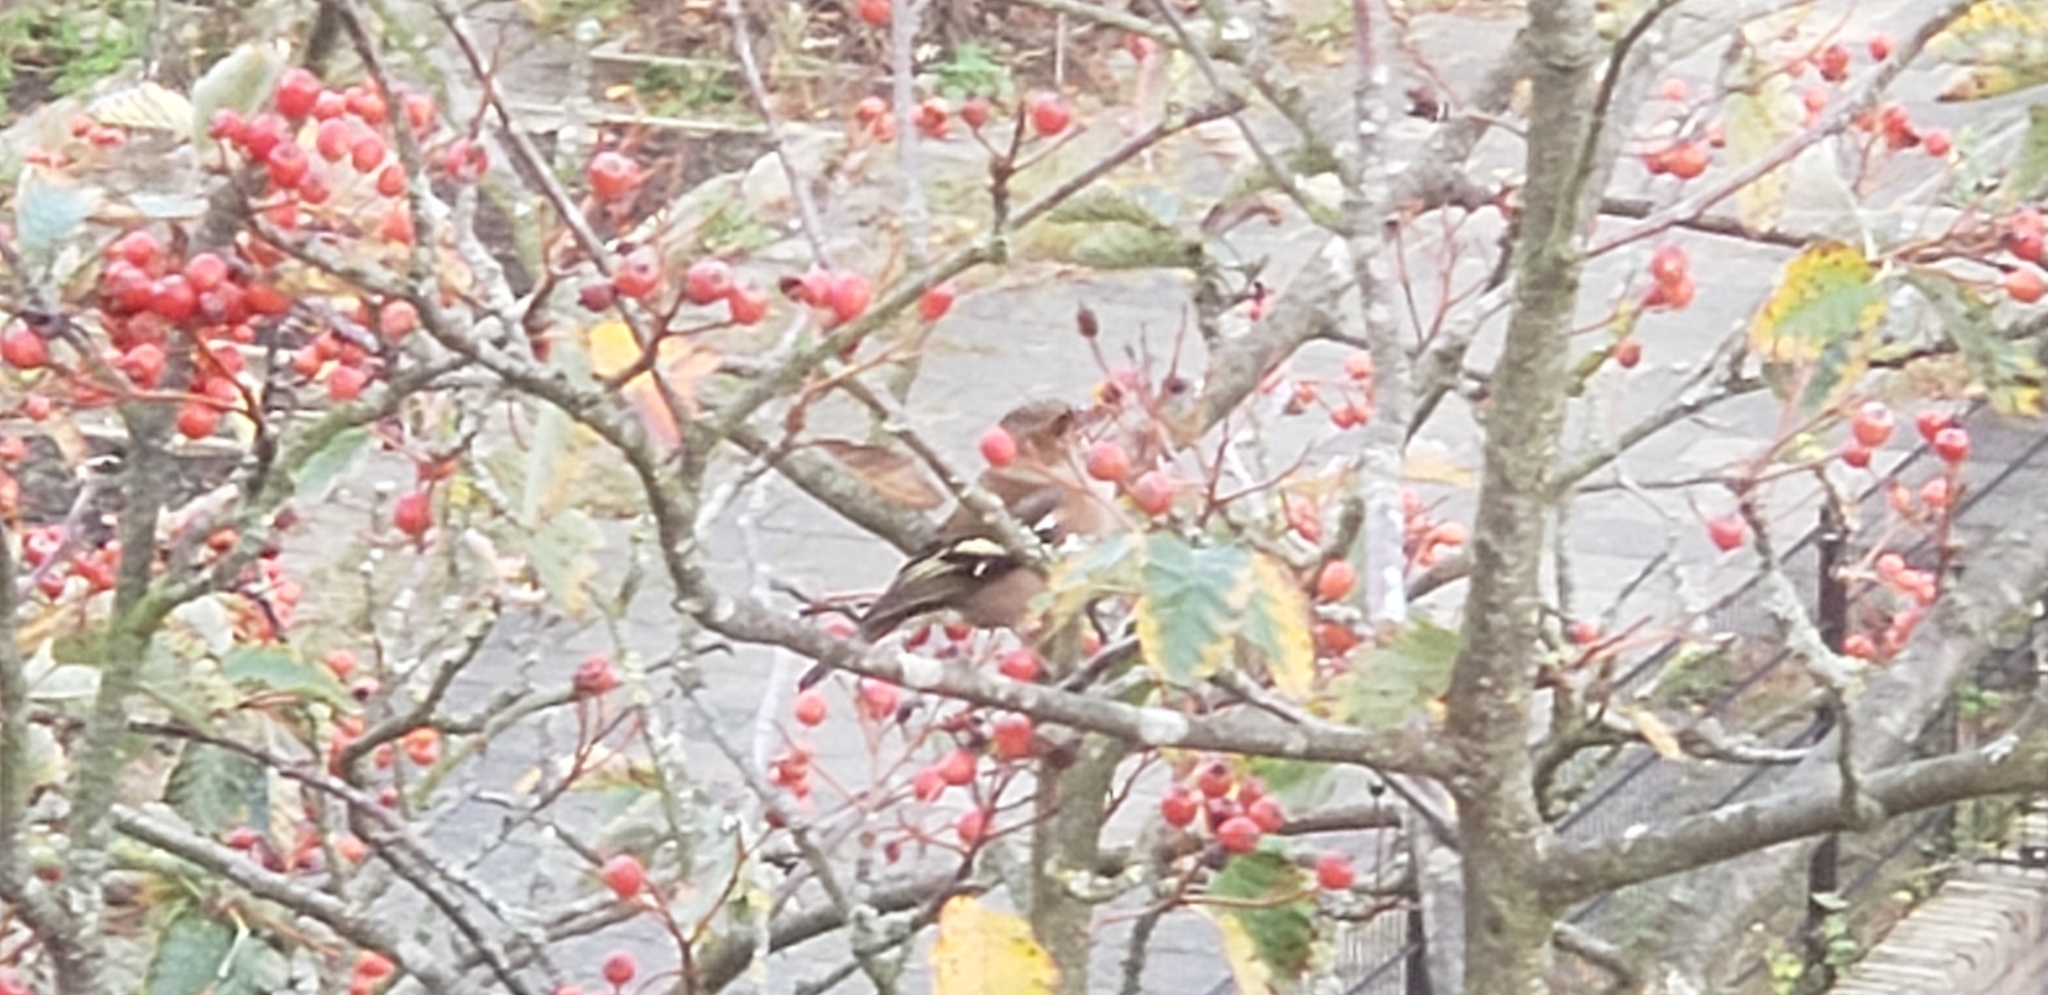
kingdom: Animalia
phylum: Chordata
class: Aves
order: Passeriformes
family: Fringillidae
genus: Fringilla
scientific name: Fringilla coelebs
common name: Common chaffinch
